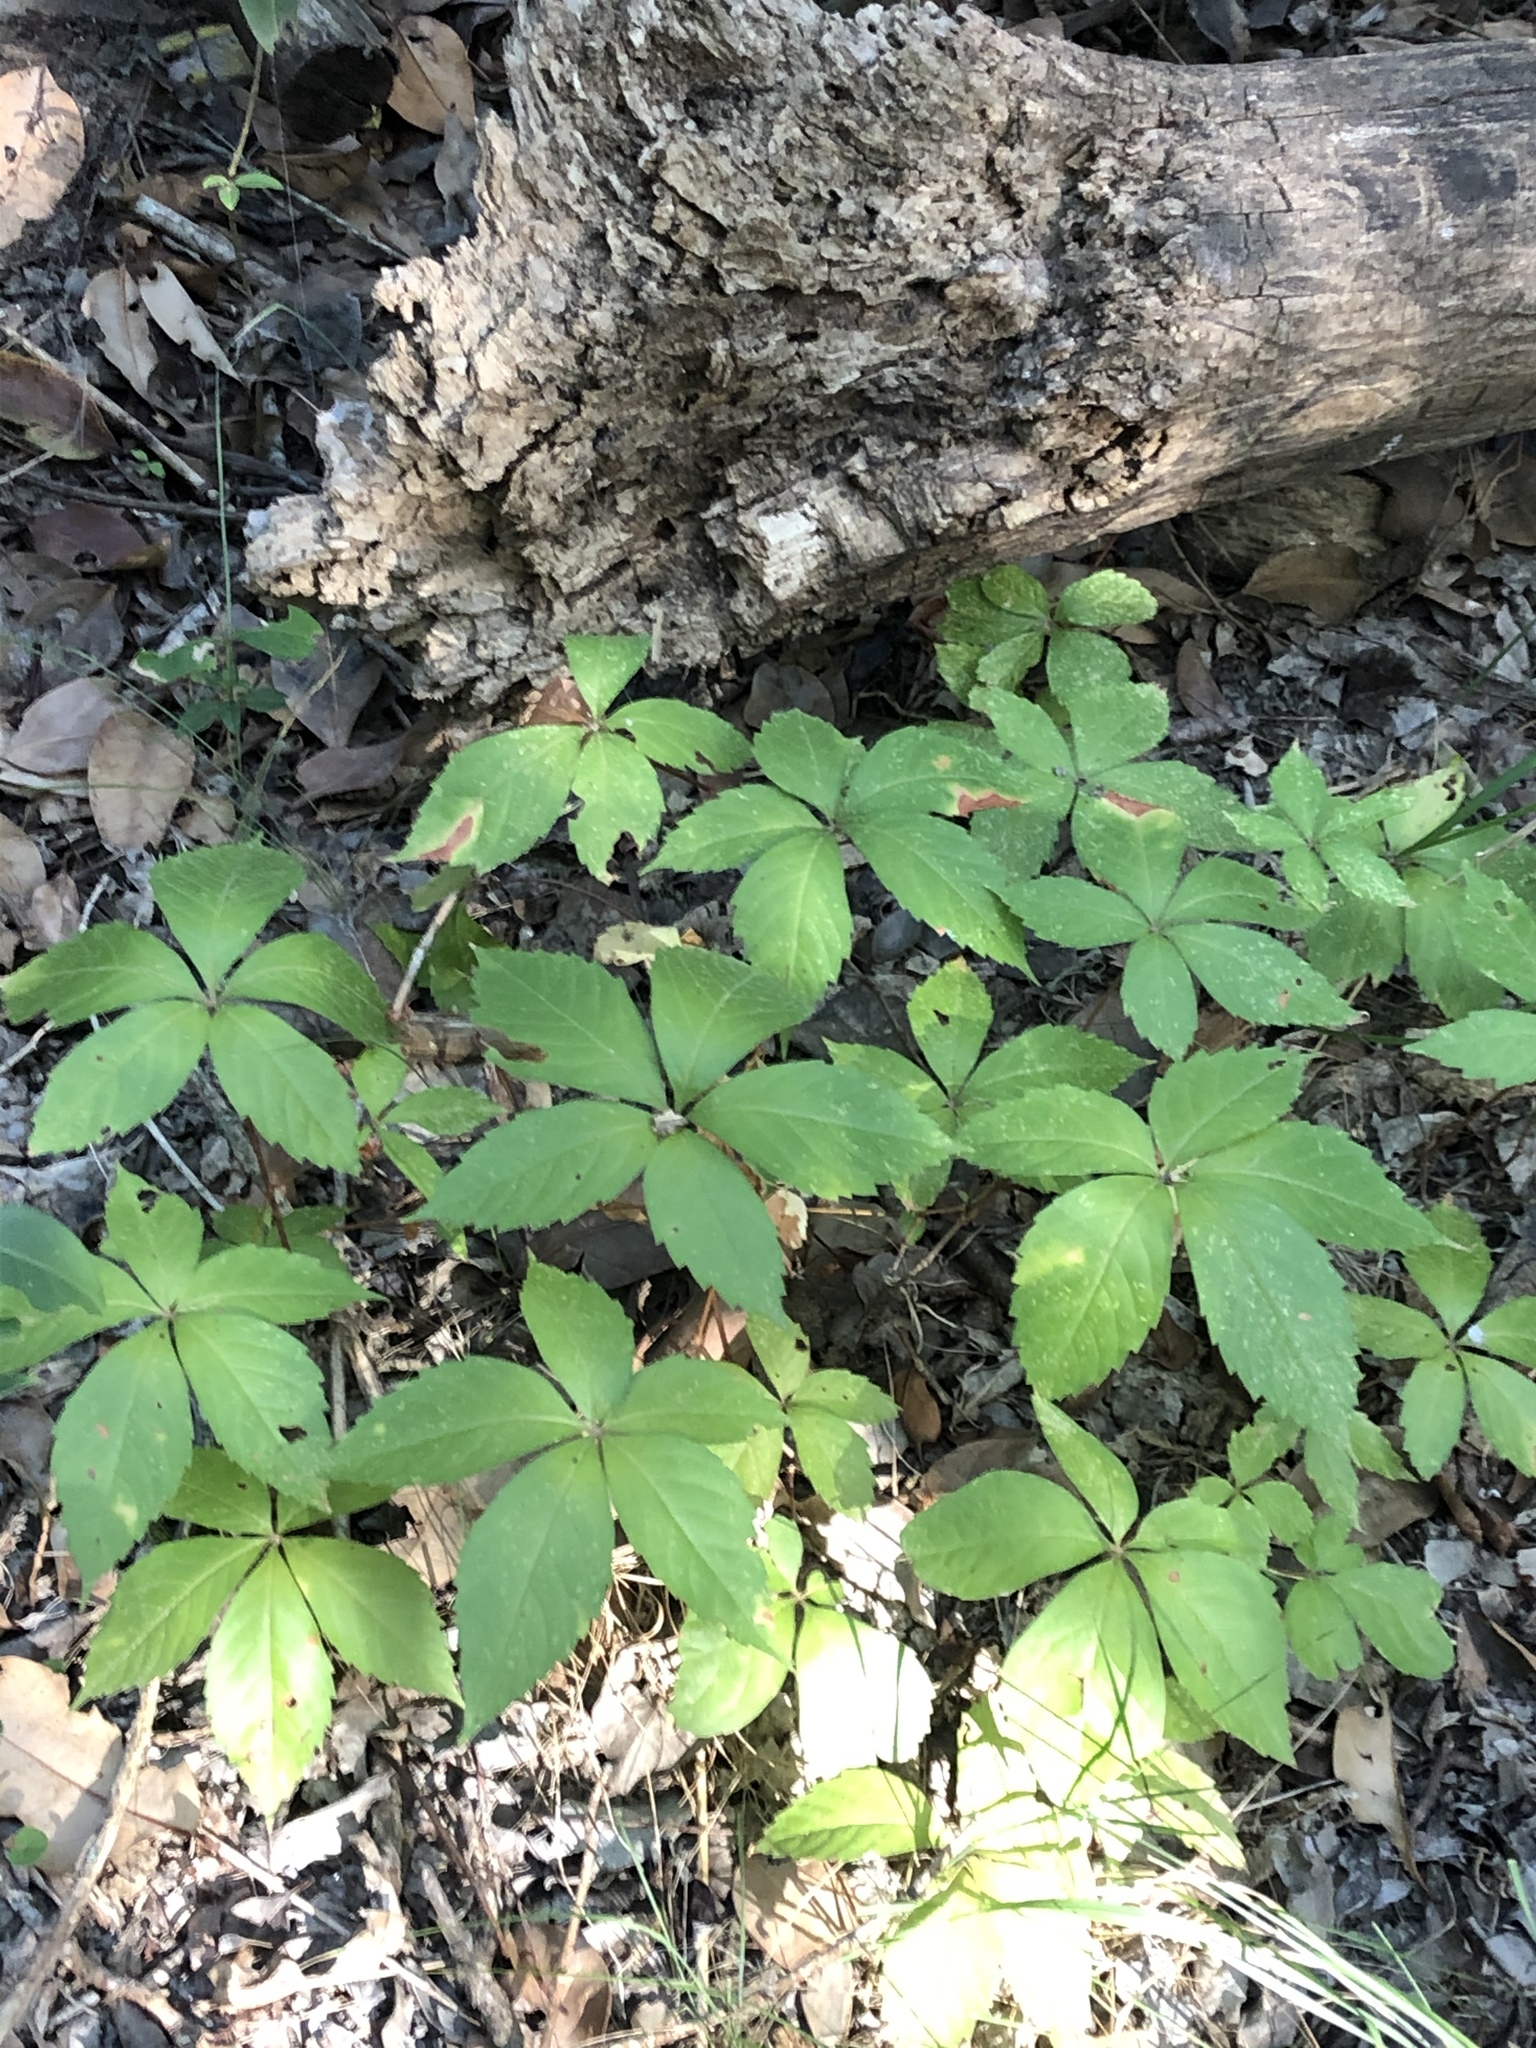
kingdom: Plantae
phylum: Tracheophyta
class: Magnoliopsida
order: Vitales
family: Vitaceae
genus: Parthenocissus
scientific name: Parthenocissus quinquefolia
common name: Virginia-creeper
